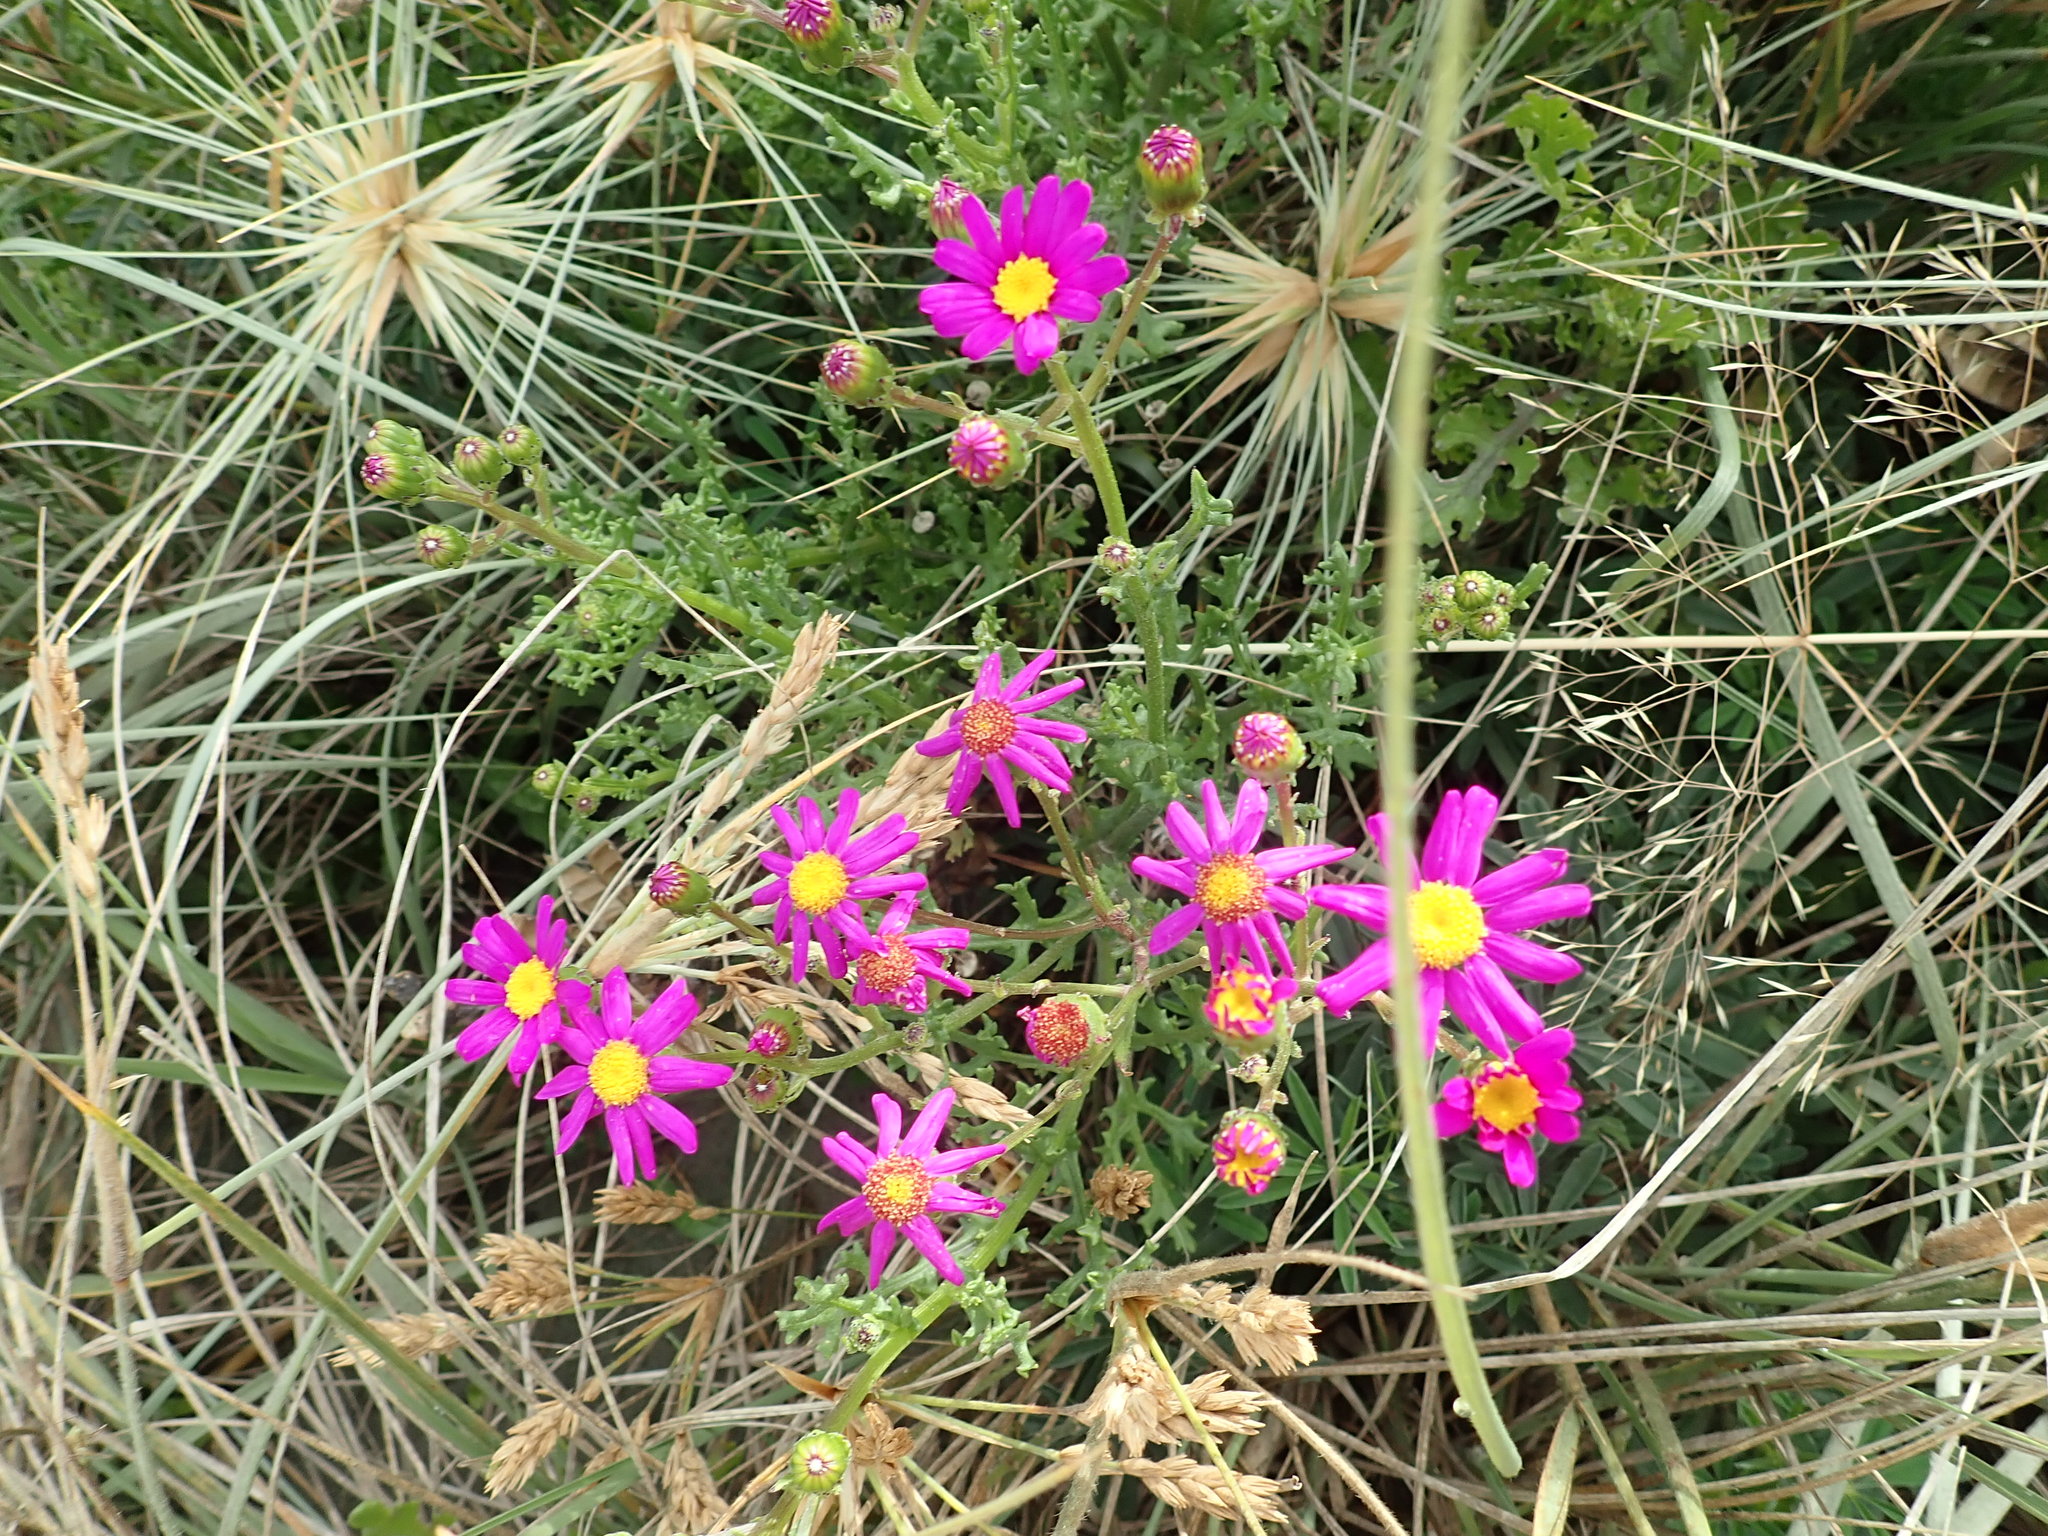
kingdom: Plantae
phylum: Tracheophyta
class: Magnoliopsida
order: Asterales
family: Asteraceae
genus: Senecio
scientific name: Senecio elegans
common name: Purple groundsel
